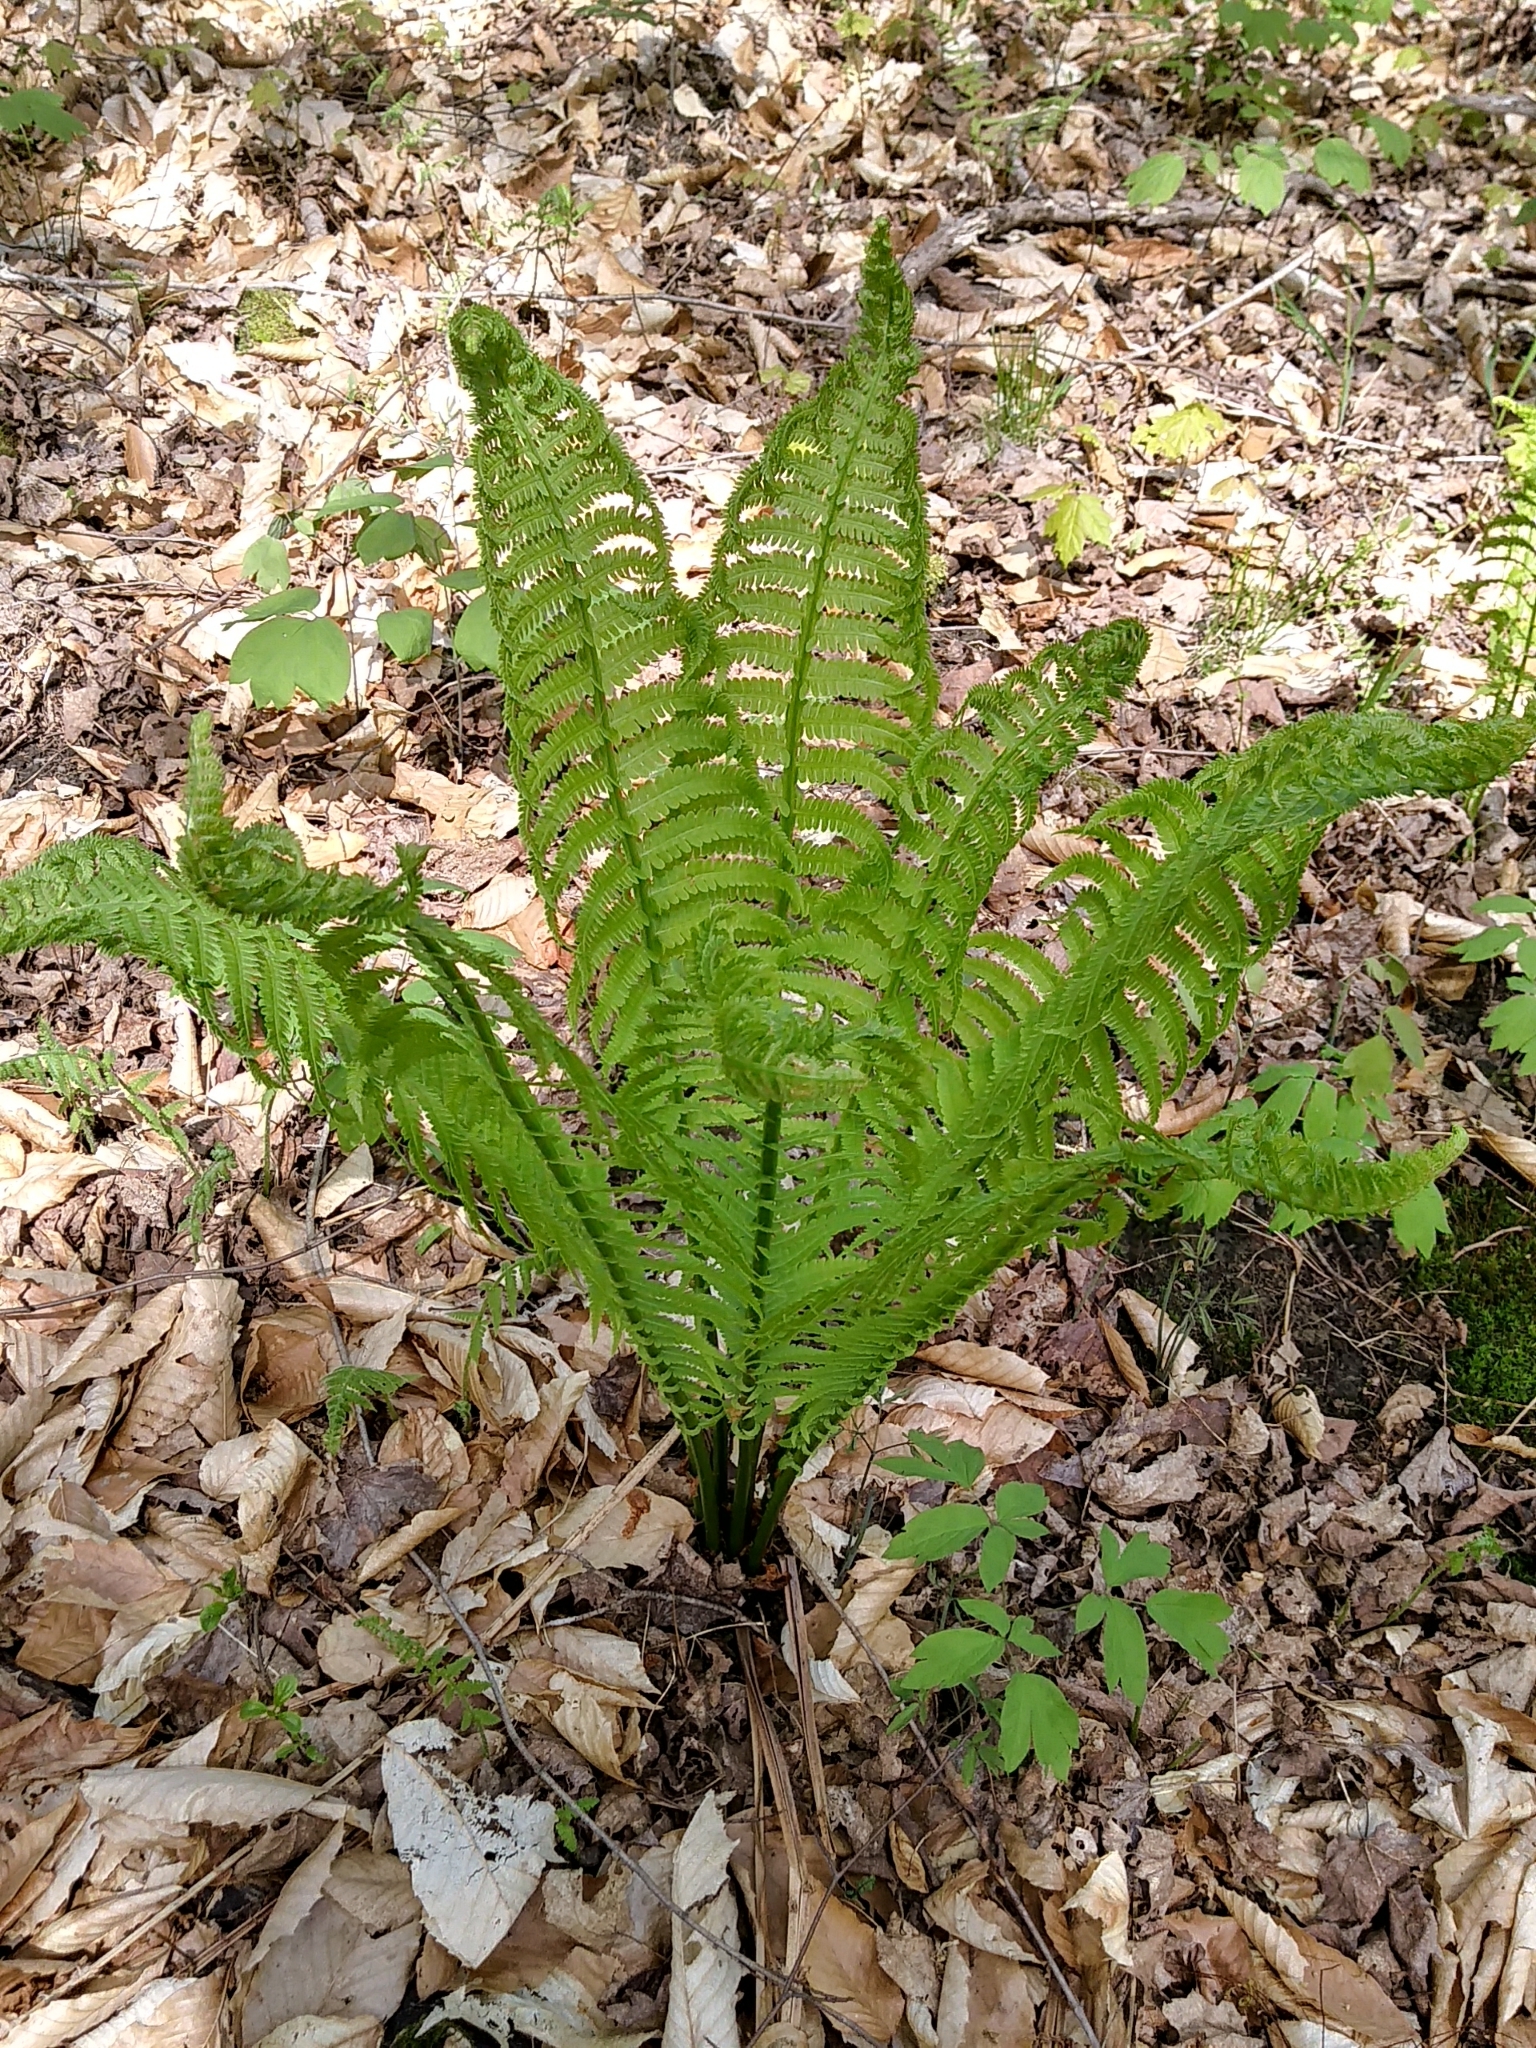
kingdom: Plantae
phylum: Tracheophyta
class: Polypodiopsida
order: Polypodiales
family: Onocleaceae
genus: Matteuccia
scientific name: Matteuccia struthiopteris
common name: Ostrich fern
